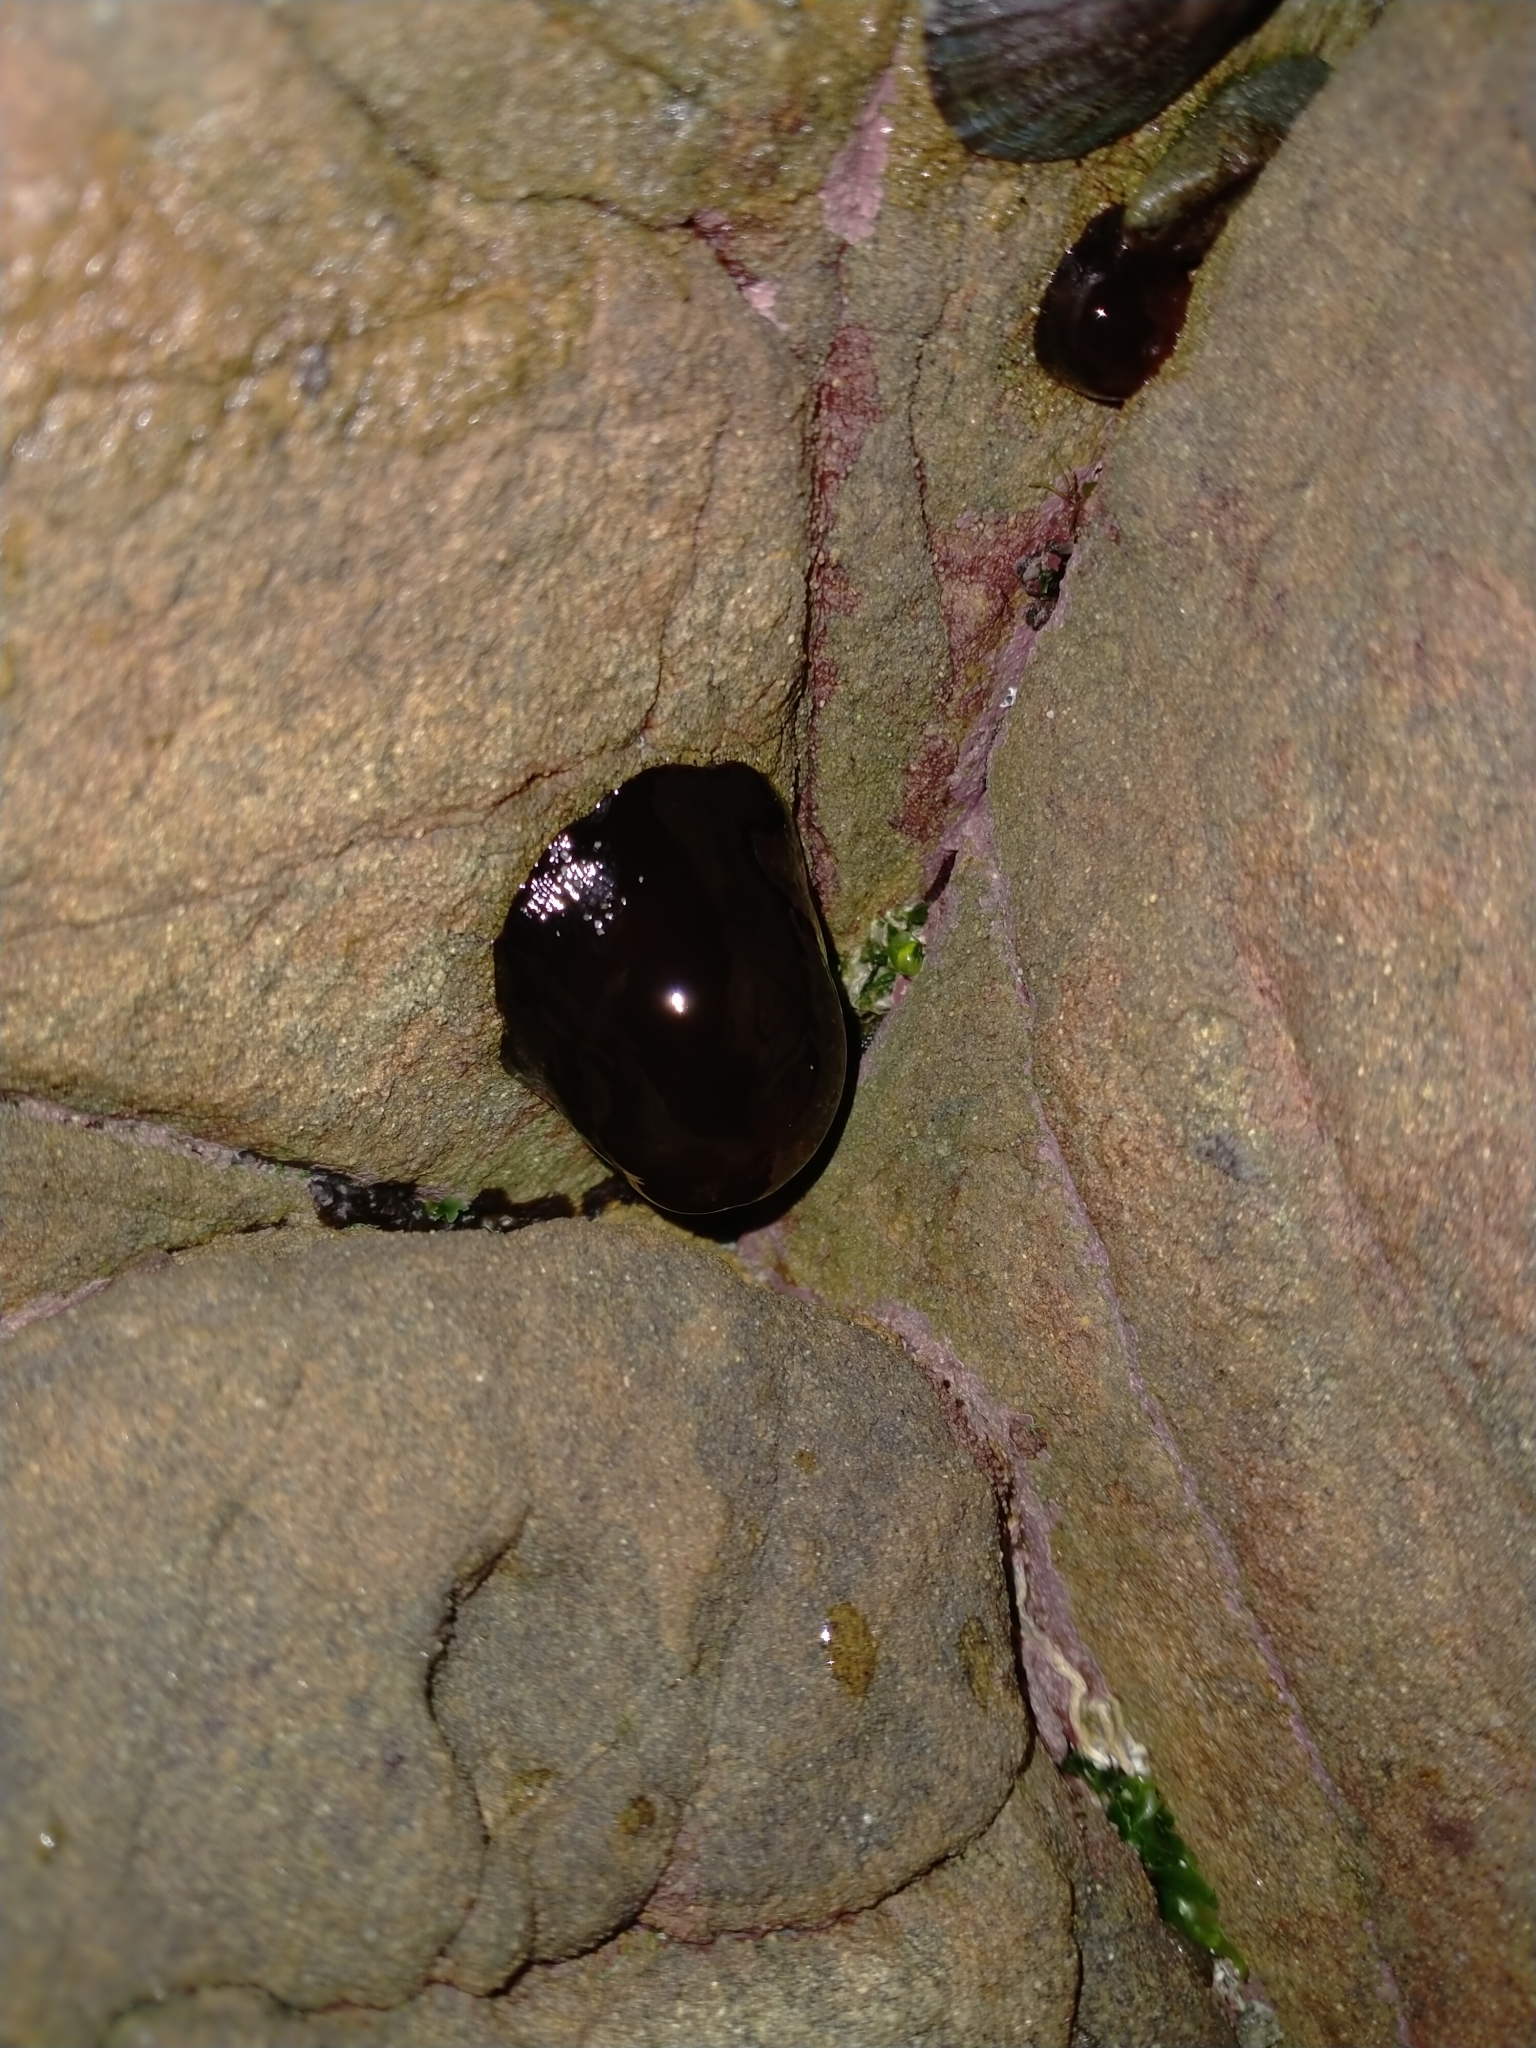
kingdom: Animalia
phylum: Cnidaria
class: Anthozoa
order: Actiniaria
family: Actiniidae
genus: Actinia
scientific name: Actinia tenebrosa
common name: Waratah anemone
